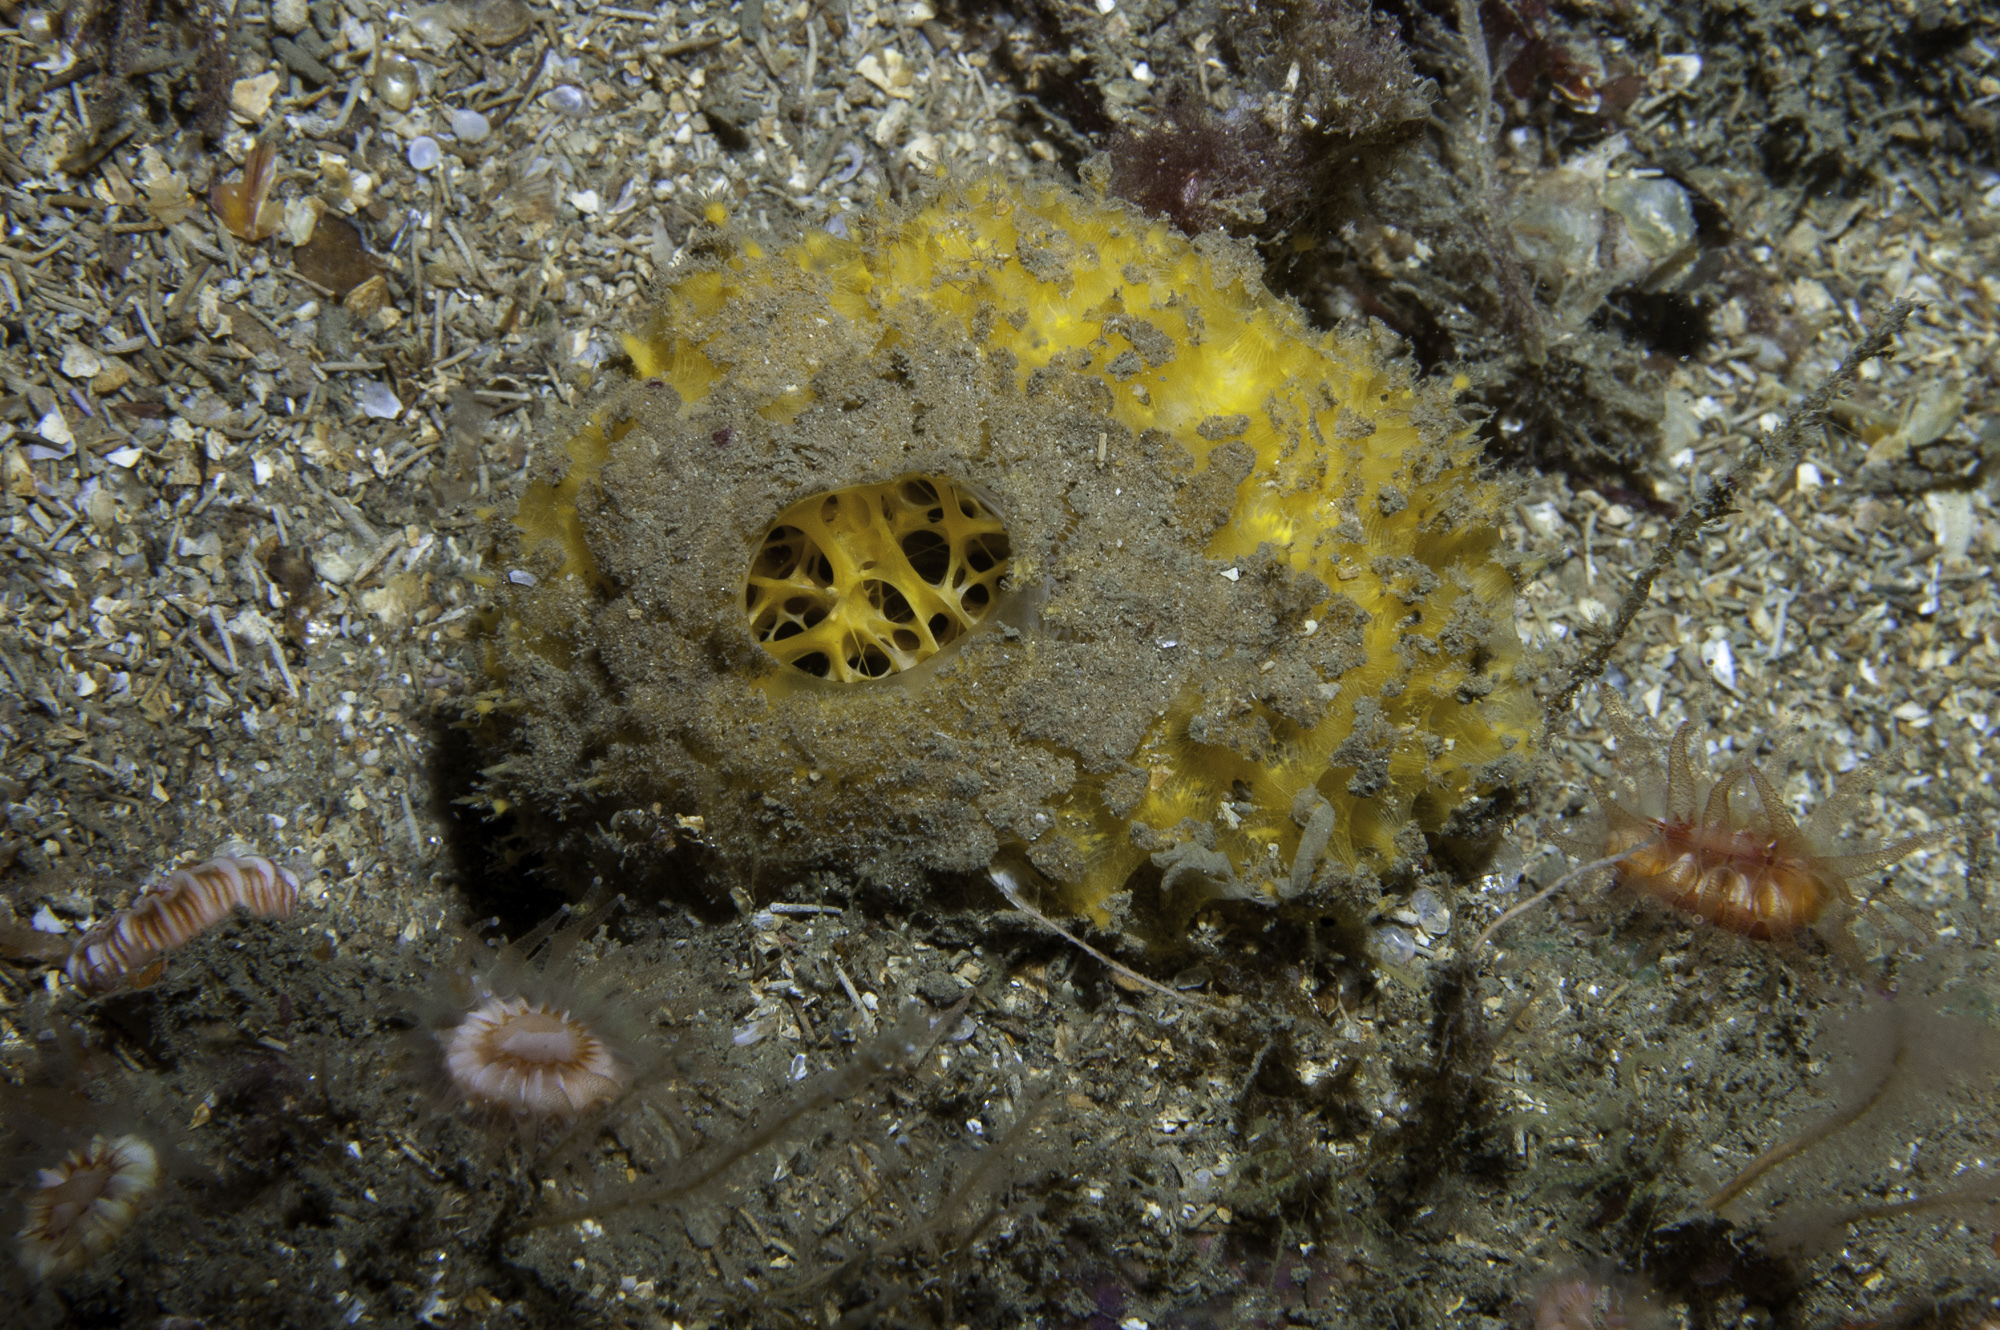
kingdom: Animalia
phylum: Porifera
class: Demospongiae
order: Tethyida
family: Tethyidae
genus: Tethya
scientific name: Tethya citrina
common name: Sea lemon
